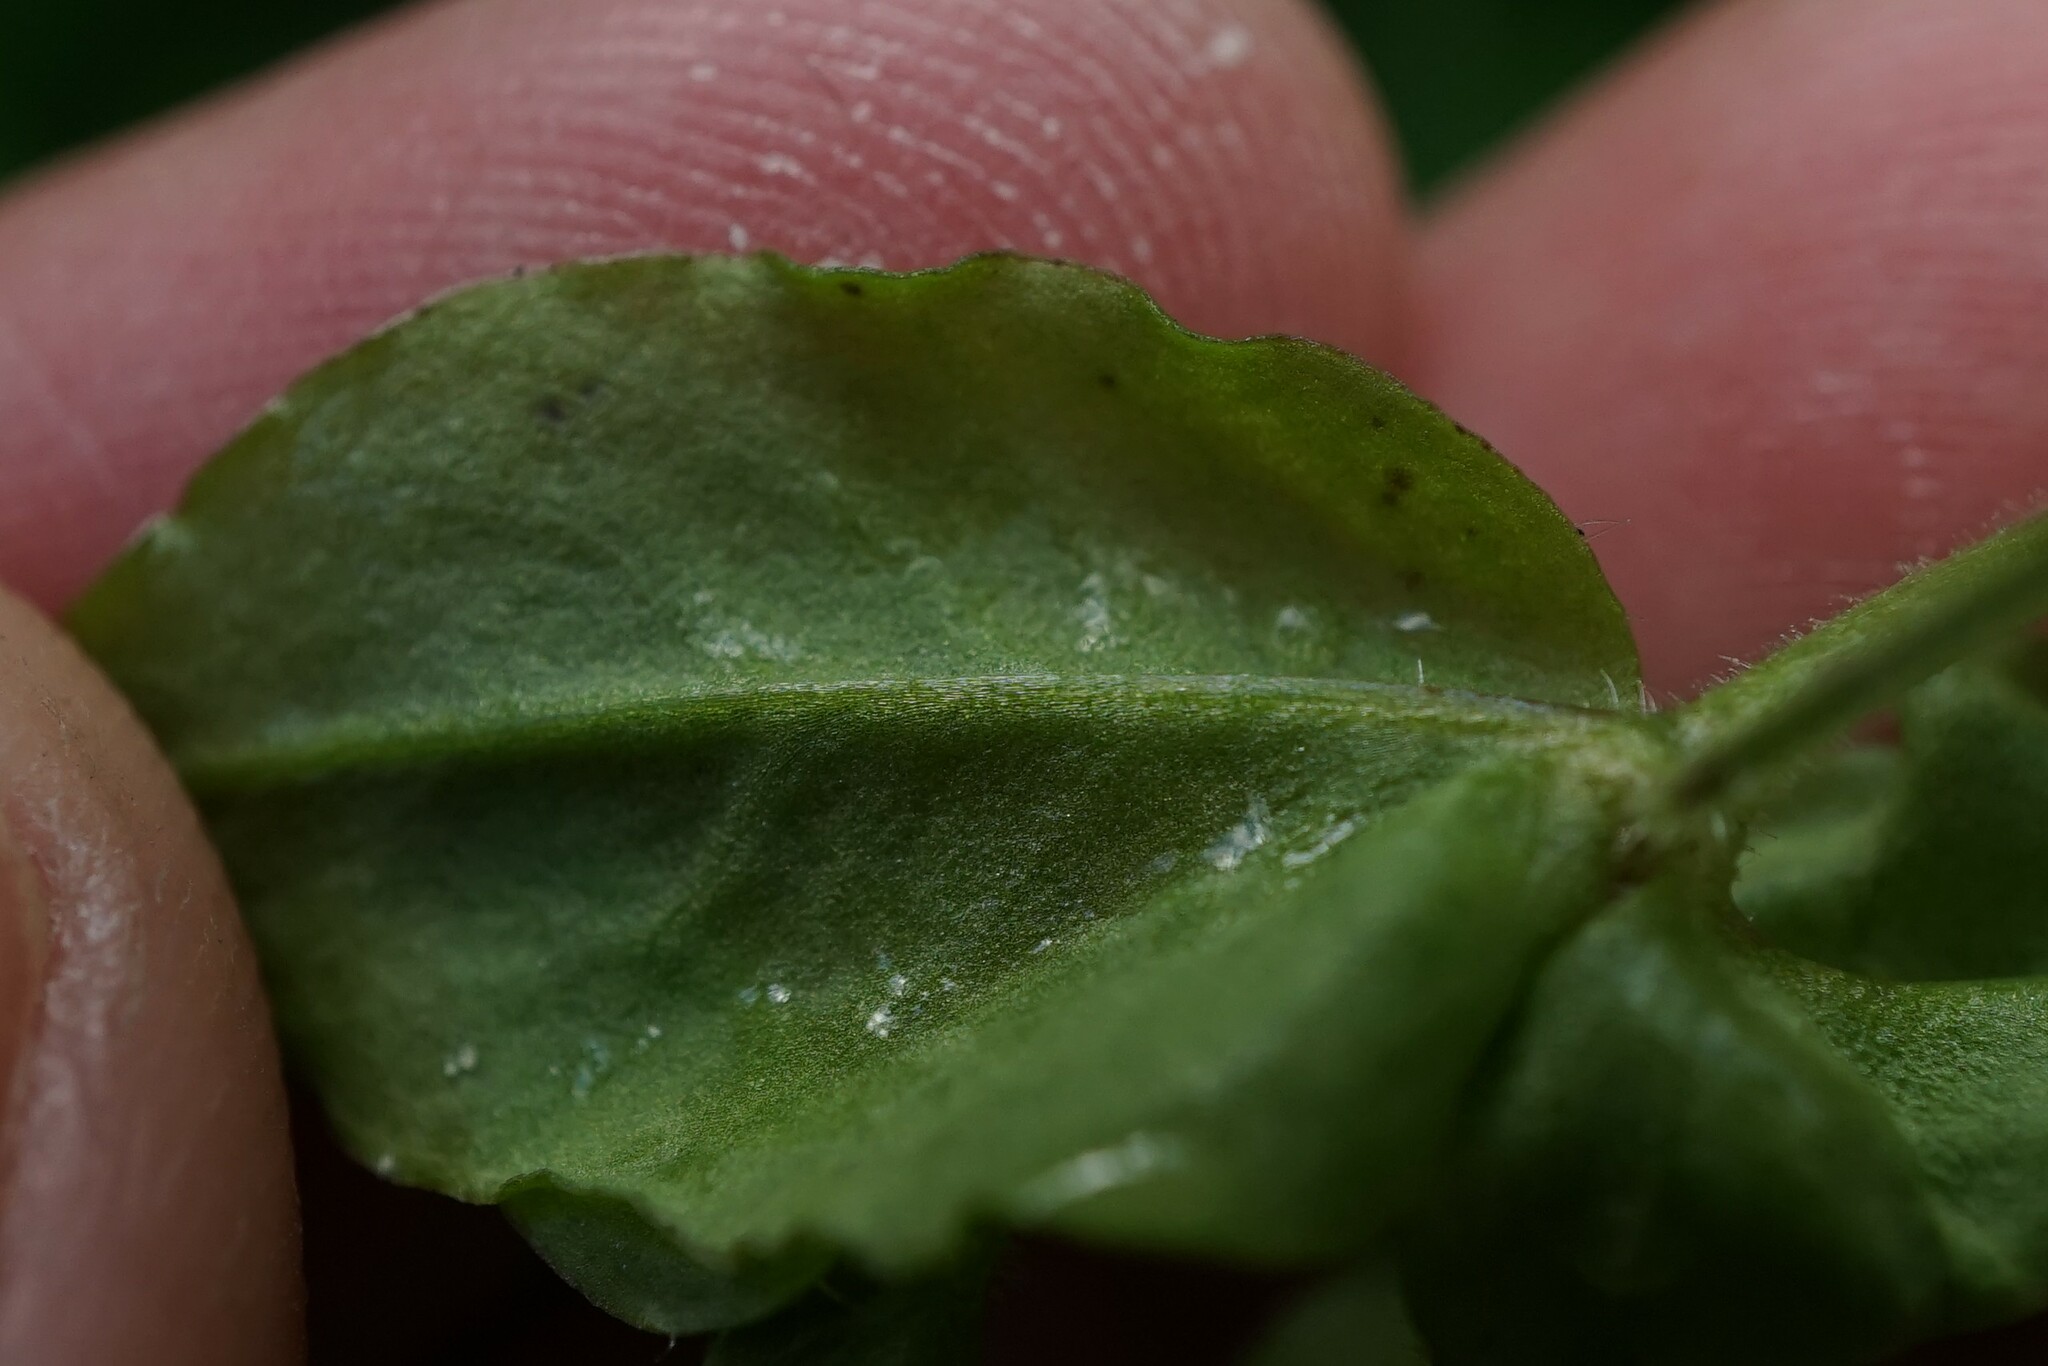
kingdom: Plantae
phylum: Tracheophyta
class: Magnoliopsida
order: Caryophyllales
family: Caryophyllaceae
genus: Stellaria
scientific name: Stellaria aquatica
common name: Water chickweed
